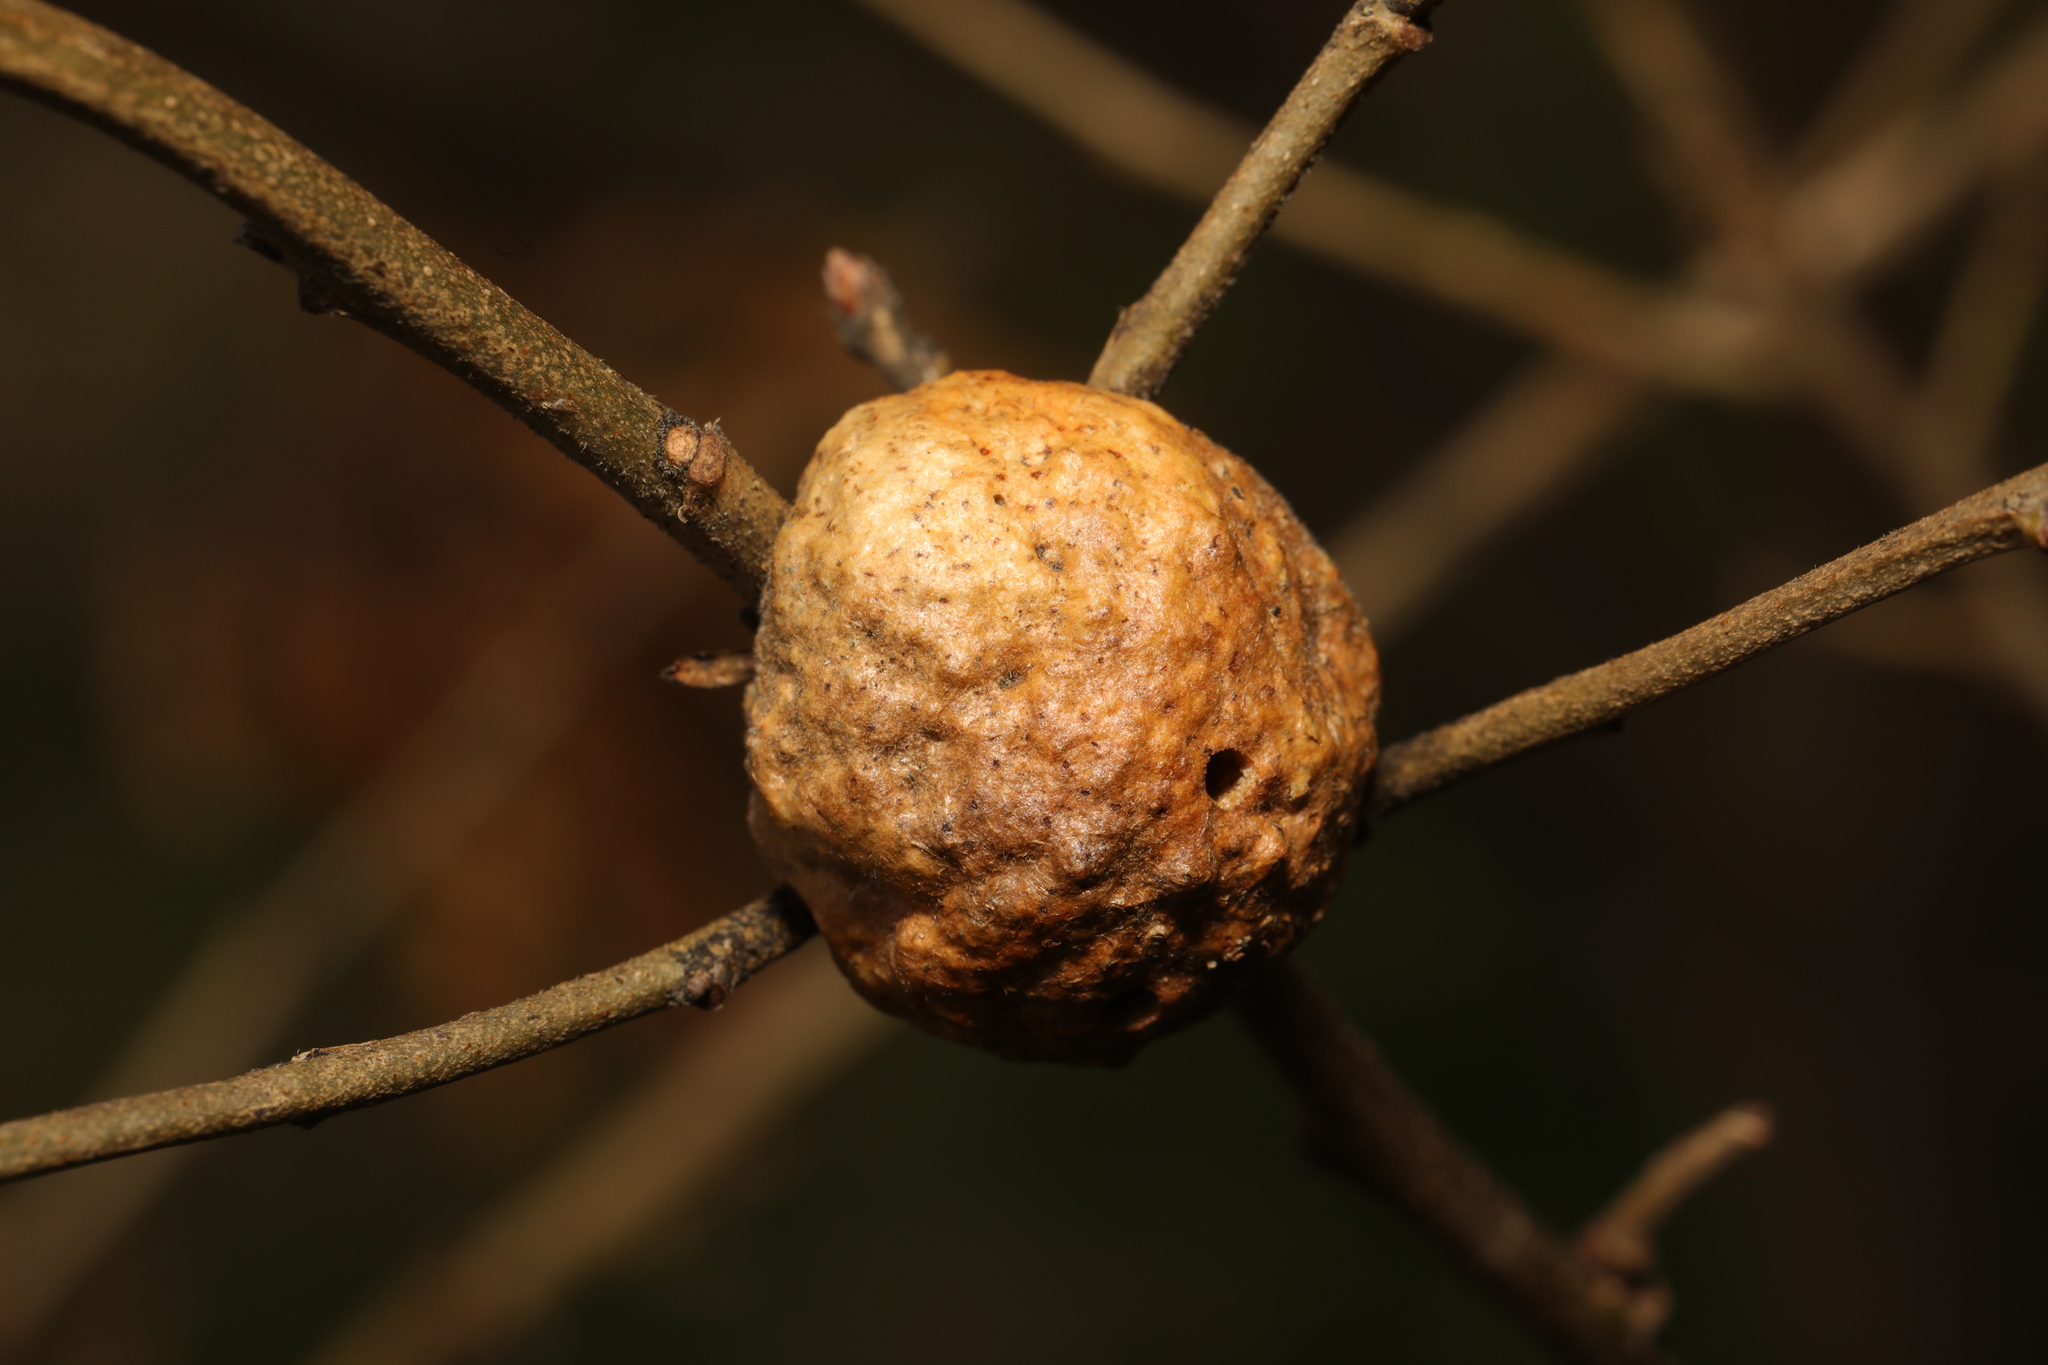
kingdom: Animalia
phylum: Arthropoda
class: Insecta
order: Hymenoptera
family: Cynipidae
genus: Aphelonyx
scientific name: Aphelonyx cerricola
